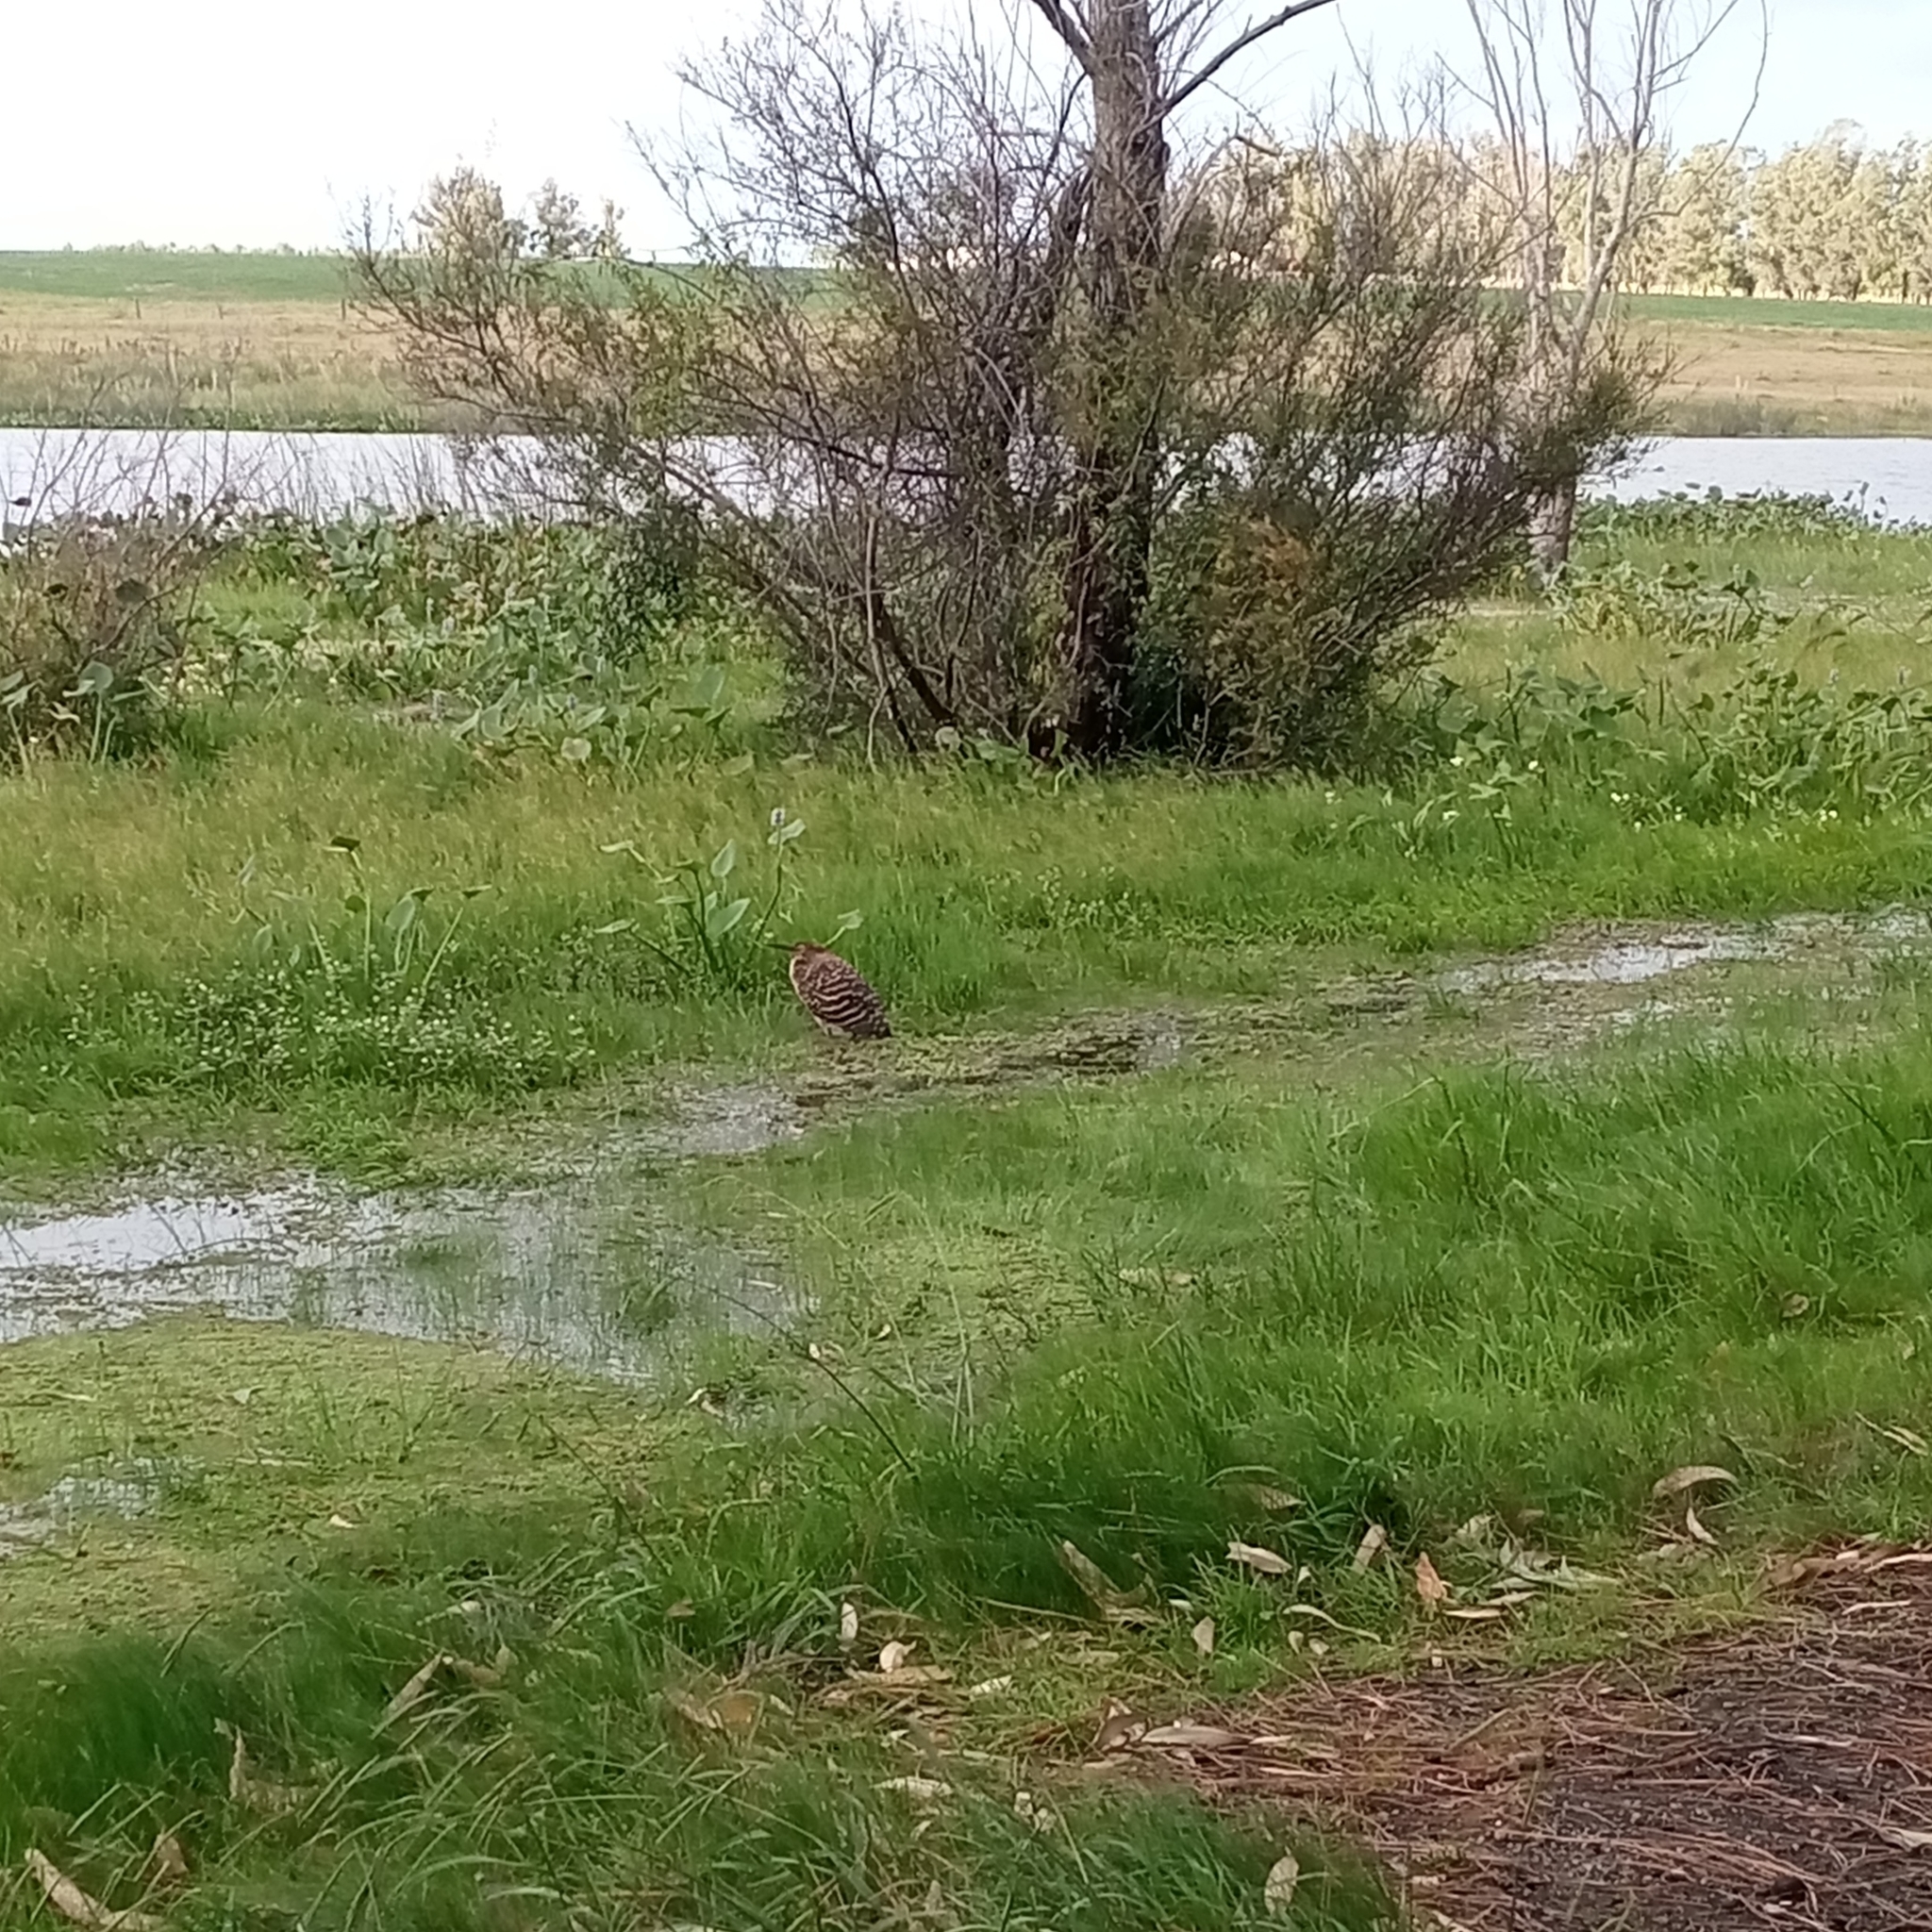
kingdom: Animalia
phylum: Chordata
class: Aves
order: Pelecaniformes
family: Ardeidae
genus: Tigrisoma
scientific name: Tigrisoma lineatum
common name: Rufescent tiger-heron
